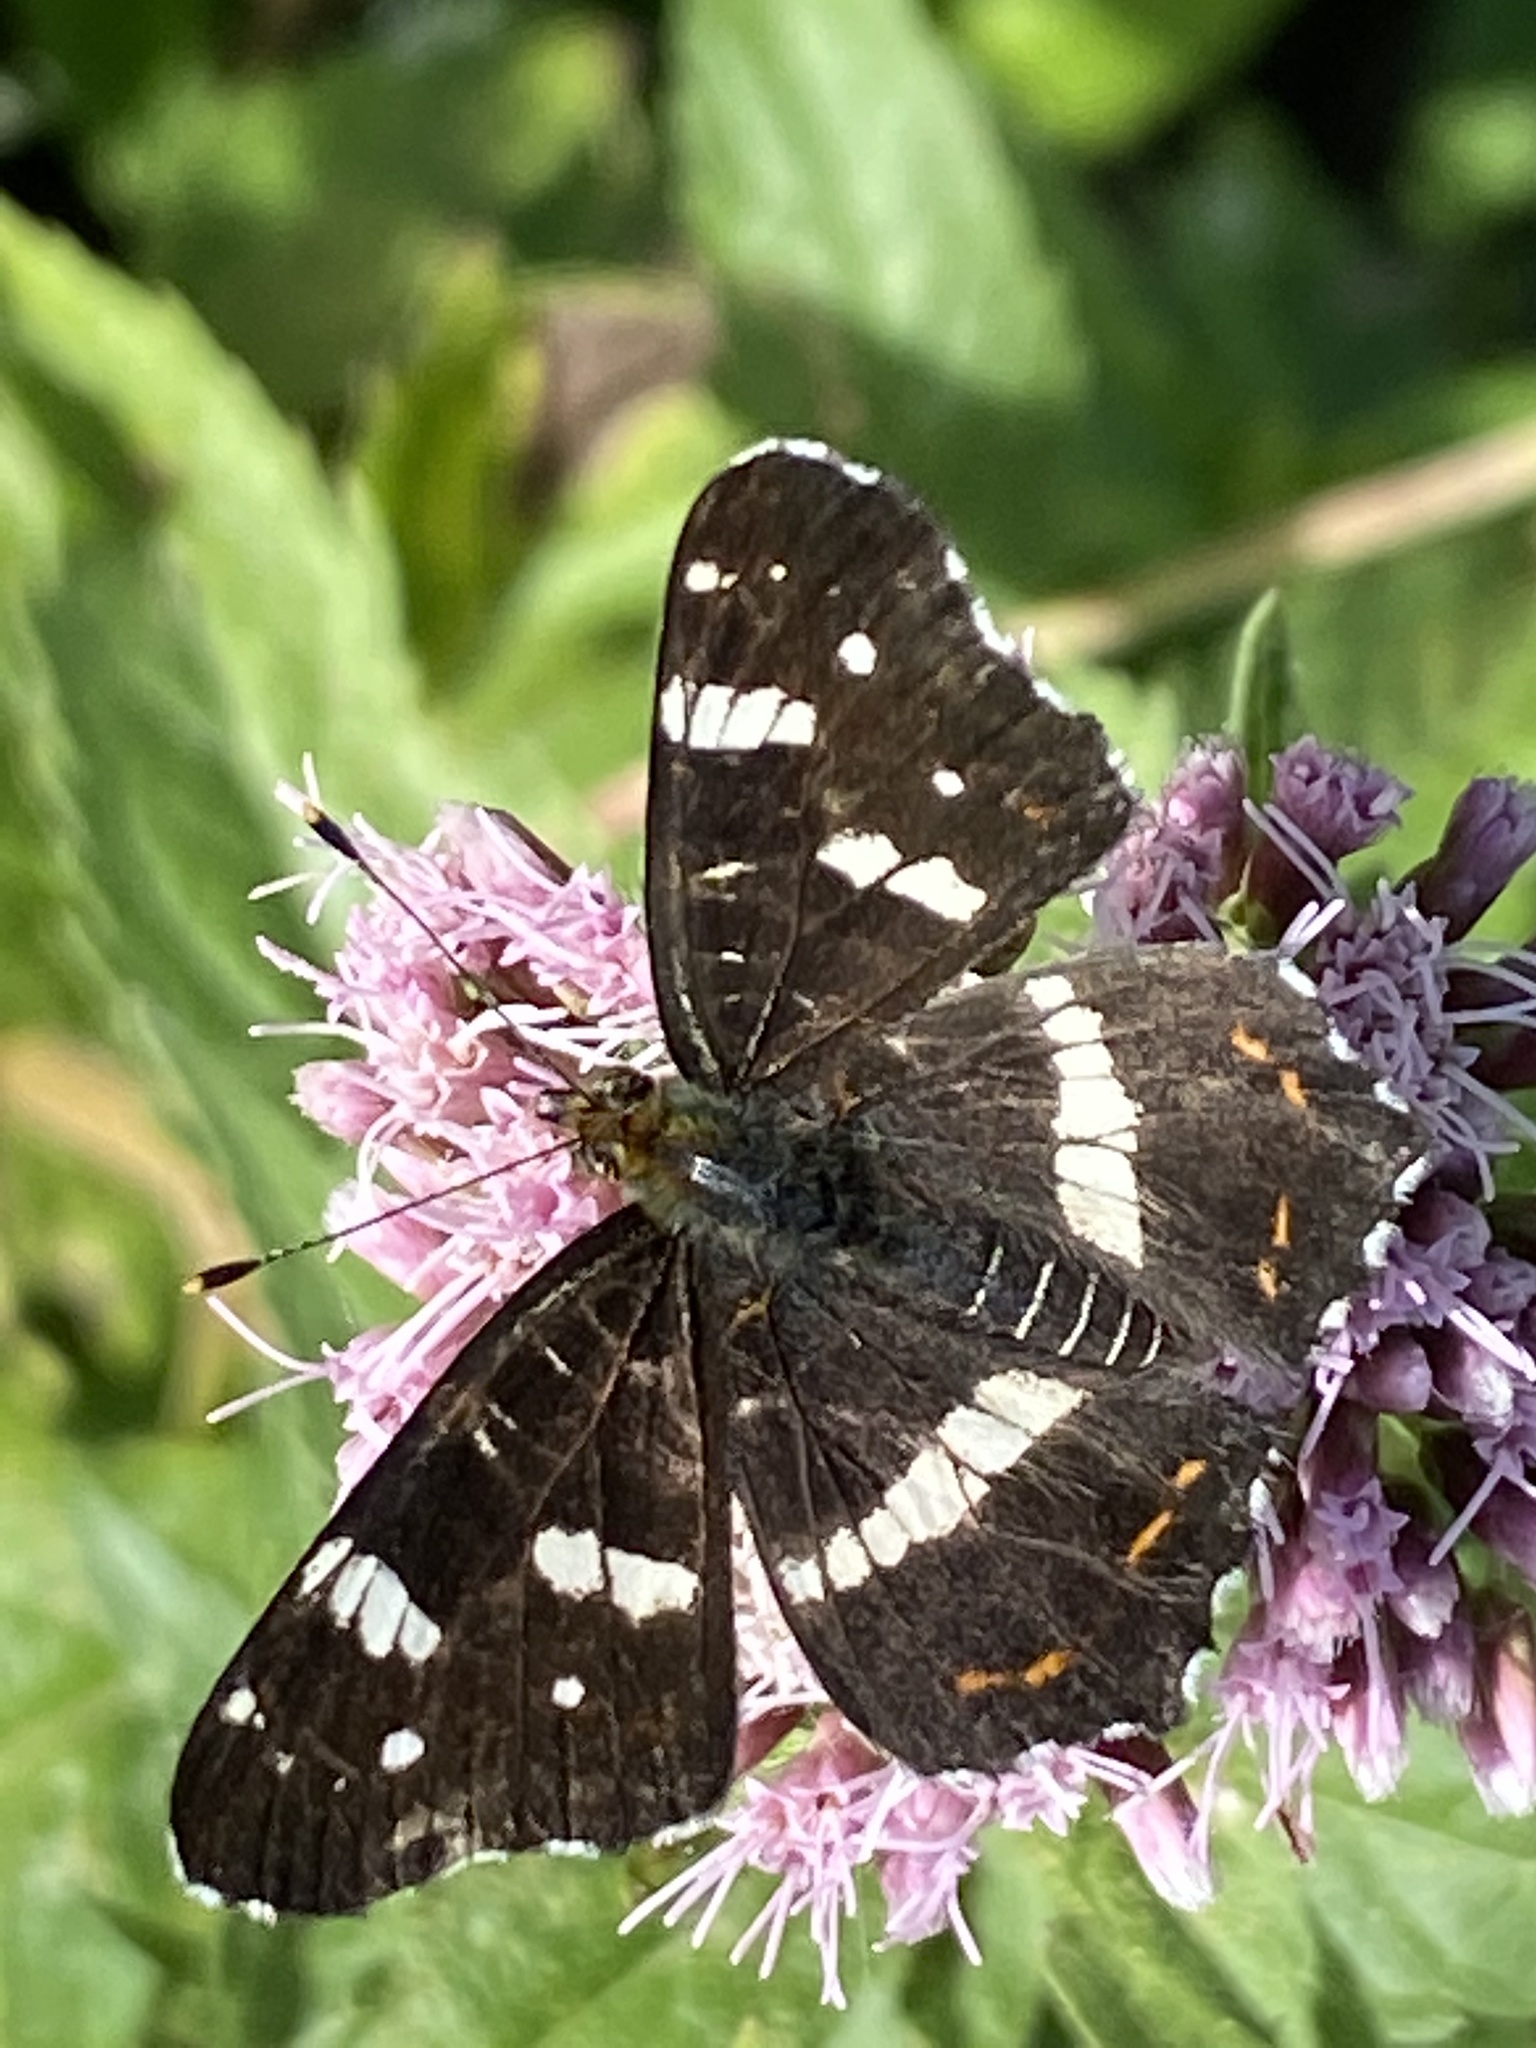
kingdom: Animalia
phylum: Arthropoda
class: Insecta
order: Lepidoptera
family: Nymphalidae
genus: Araschnia
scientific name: Araschnia levana
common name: Map butterfly
